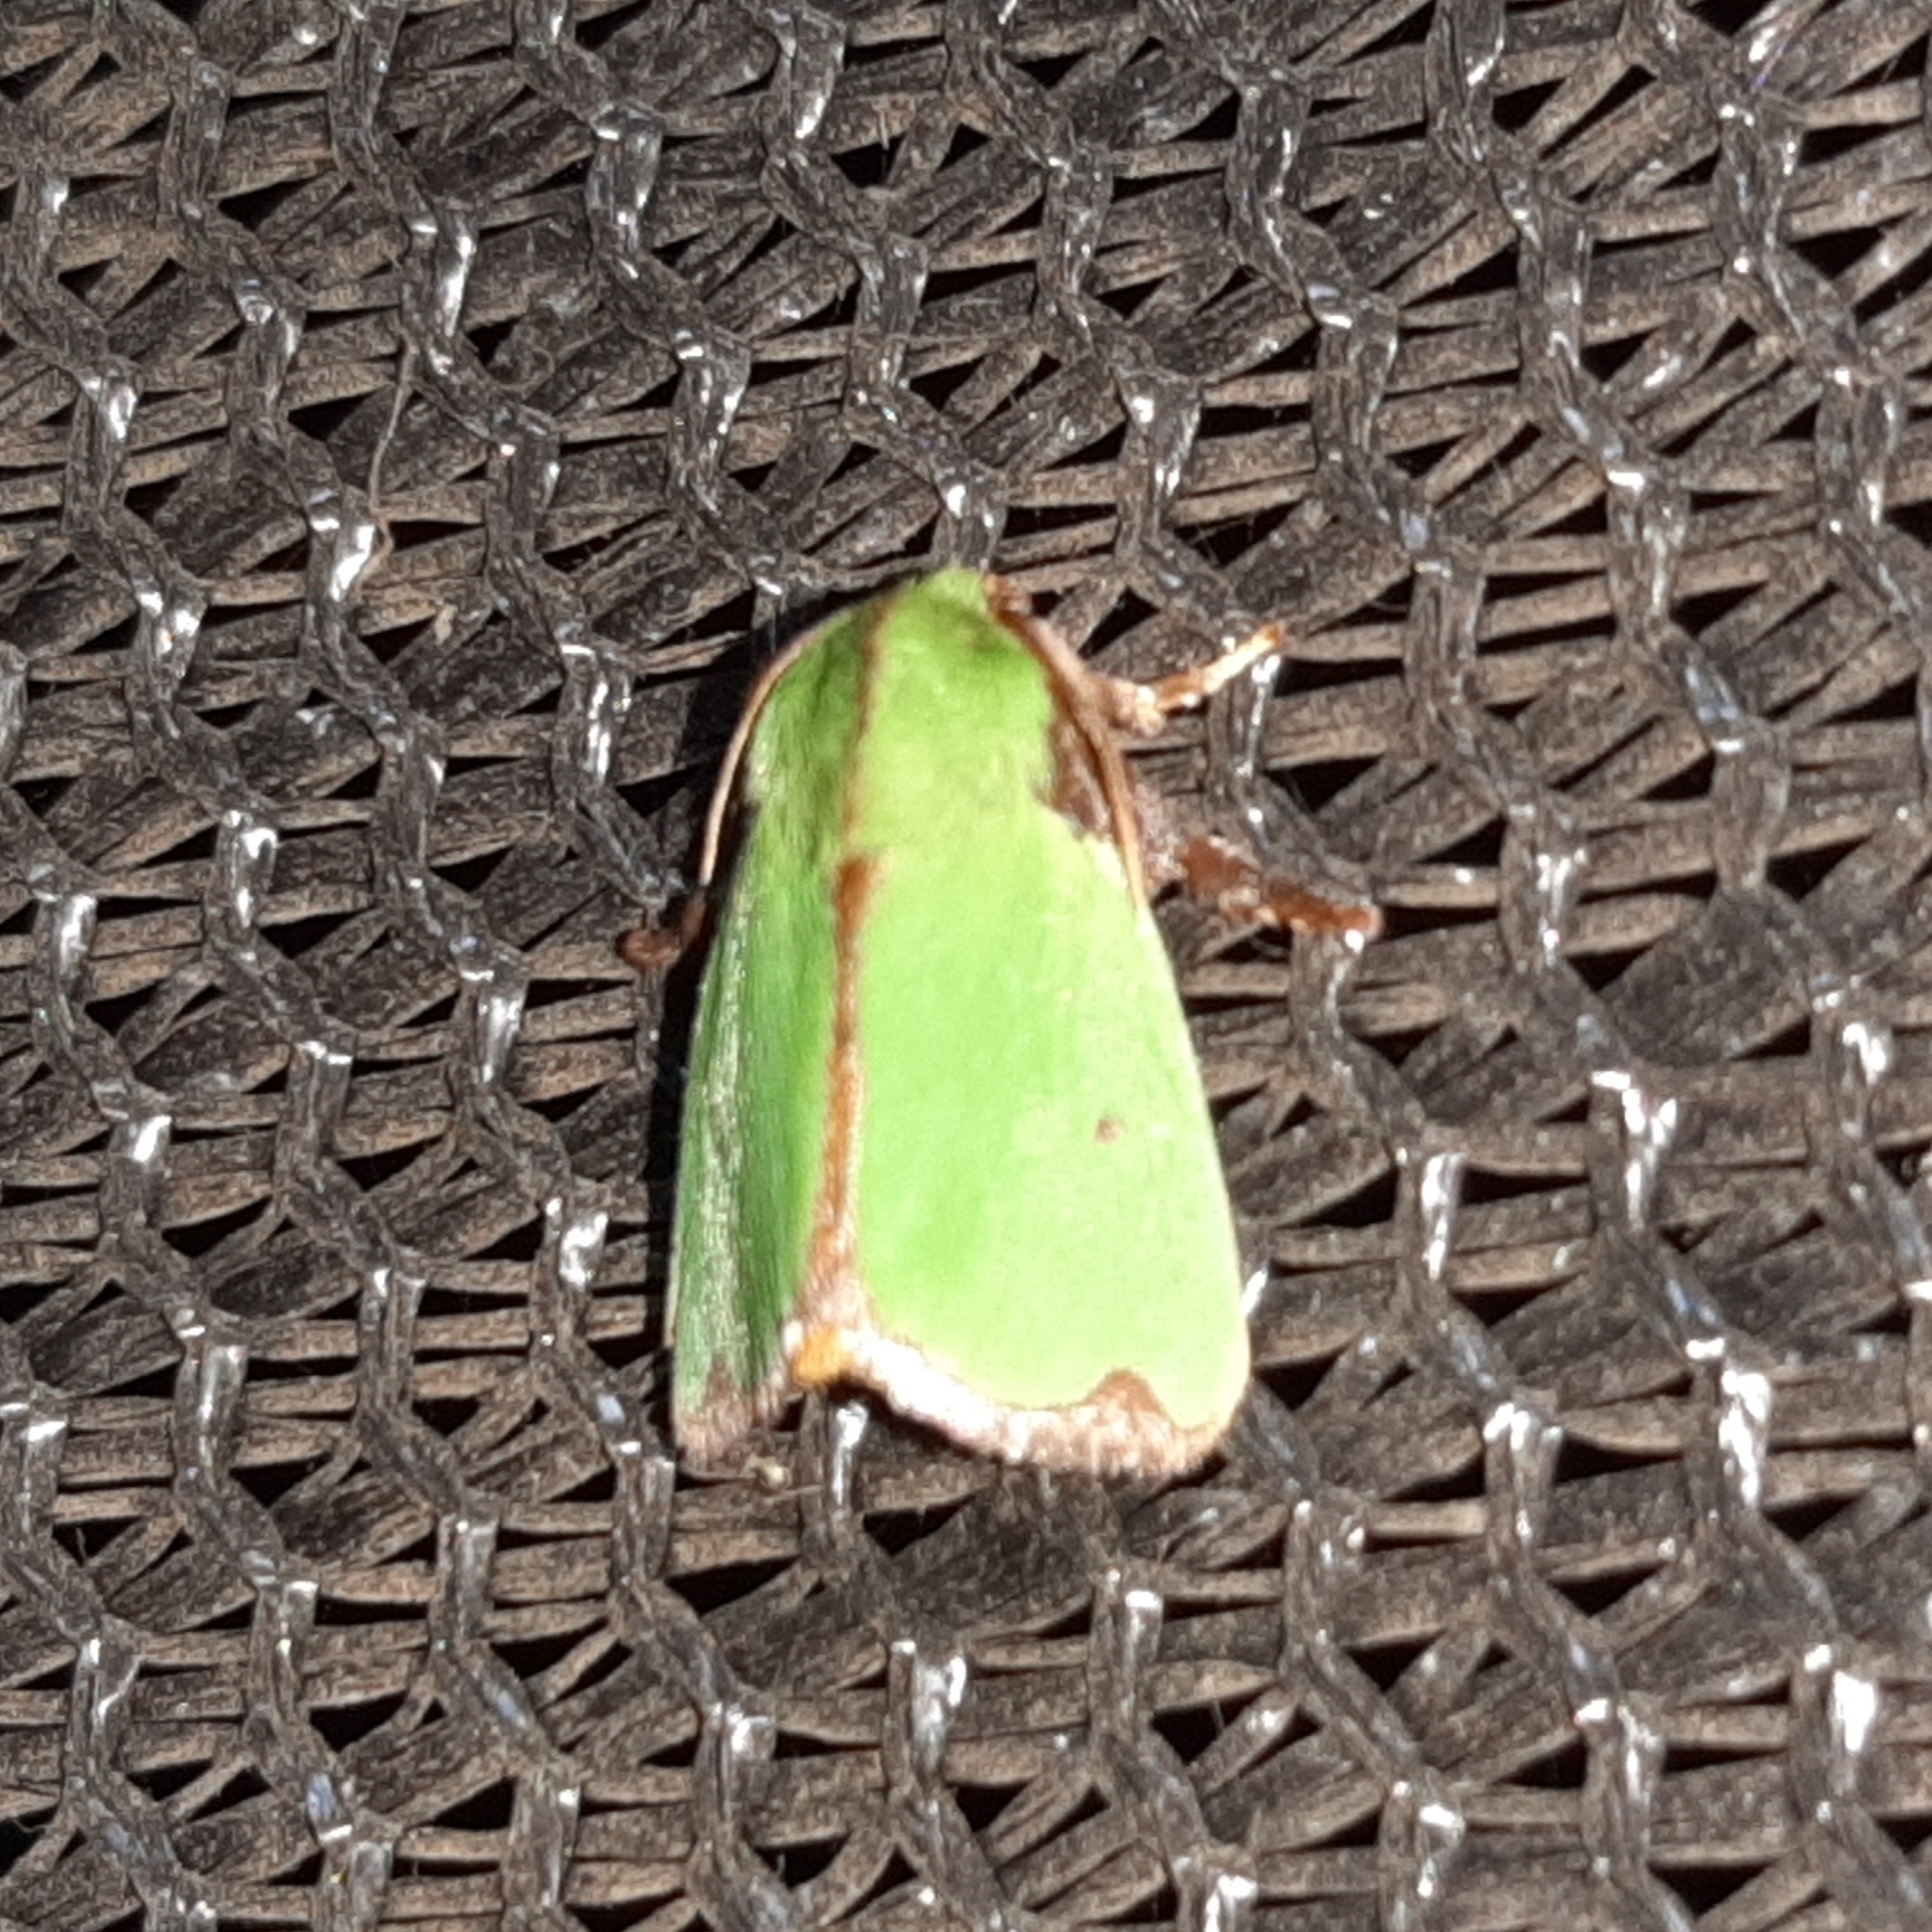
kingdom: Animalia
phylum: Arthropoda
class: Insecta
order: Lepidoptera
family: Limacodidae
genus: Parasa
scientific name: Parasa wellesca
